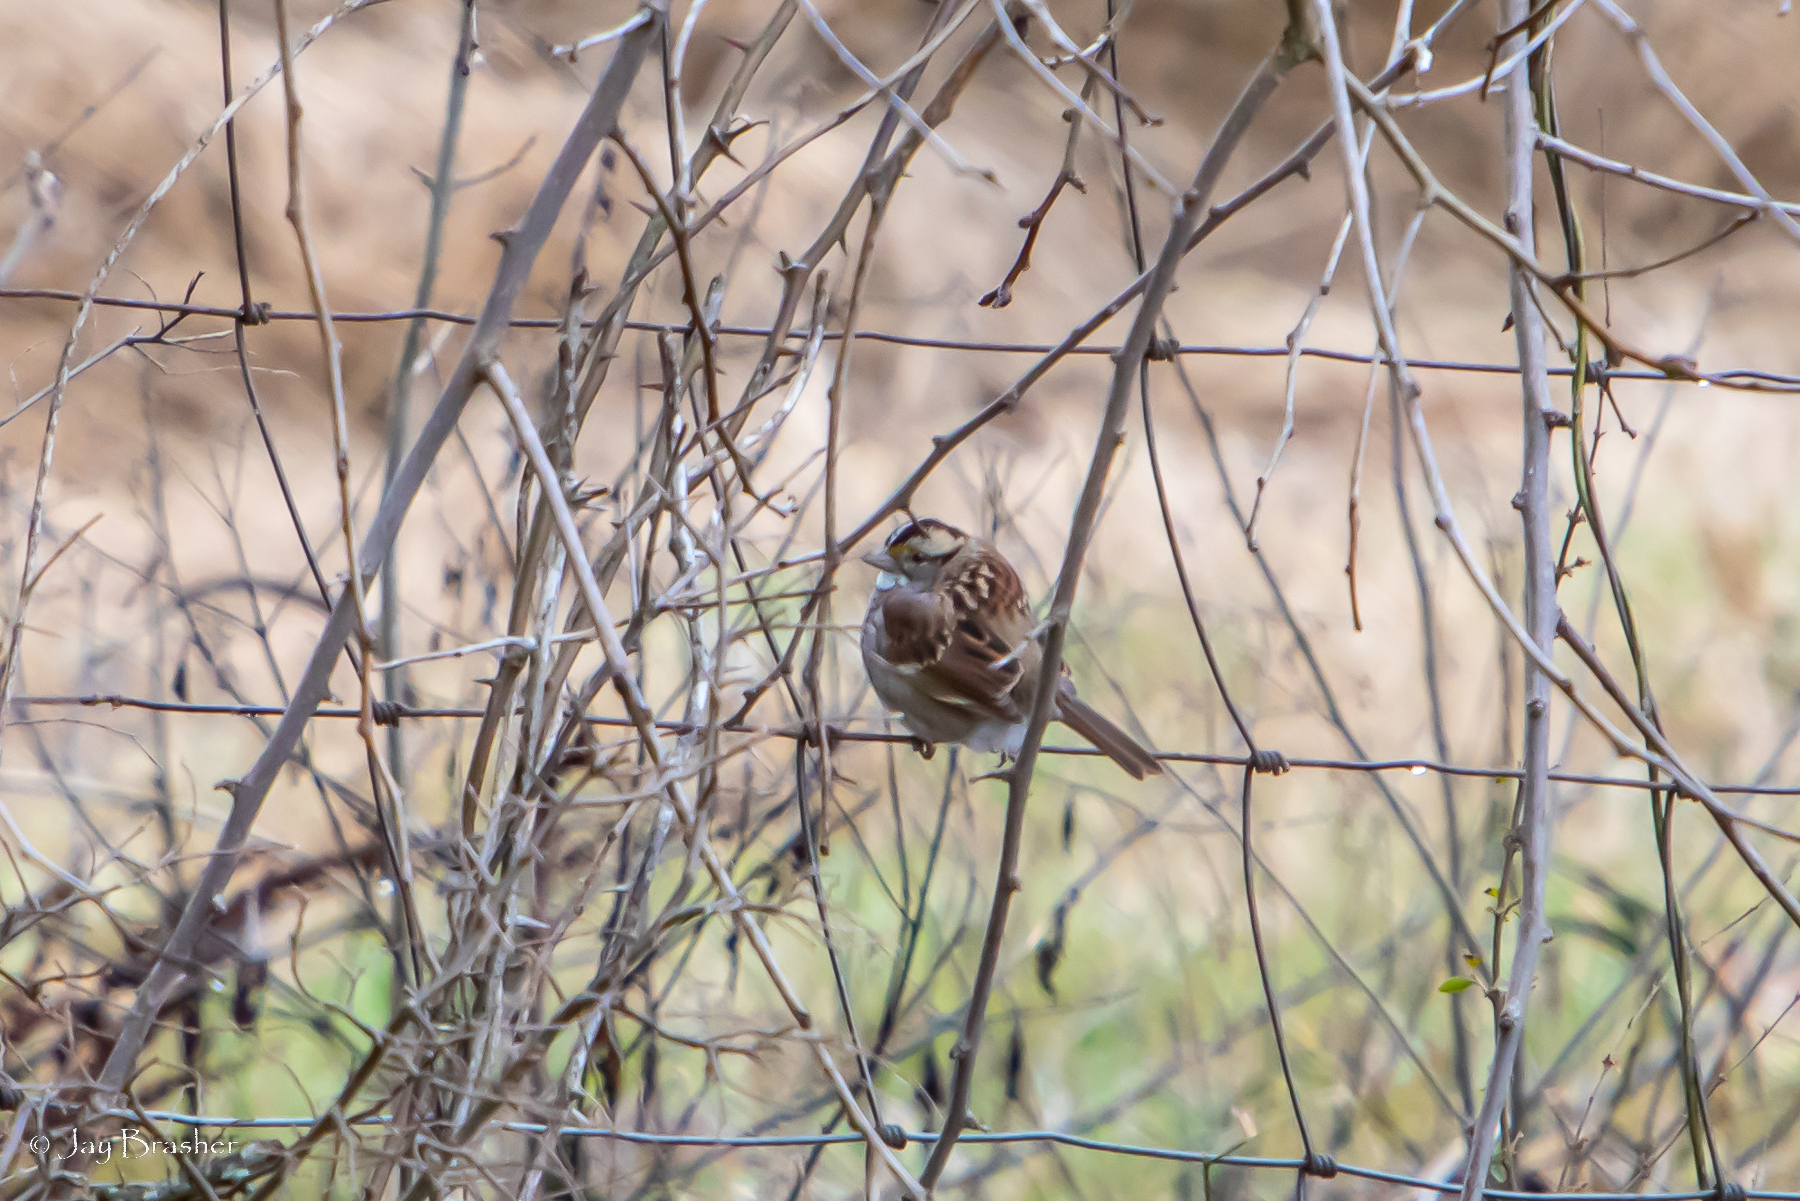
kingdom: Animalia
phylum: Chordata
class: Aves
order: Passeriformes
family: Passerellidae
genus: Zonotrichia
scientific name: Zonotrichia albicollis
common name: White-throated sparrow
